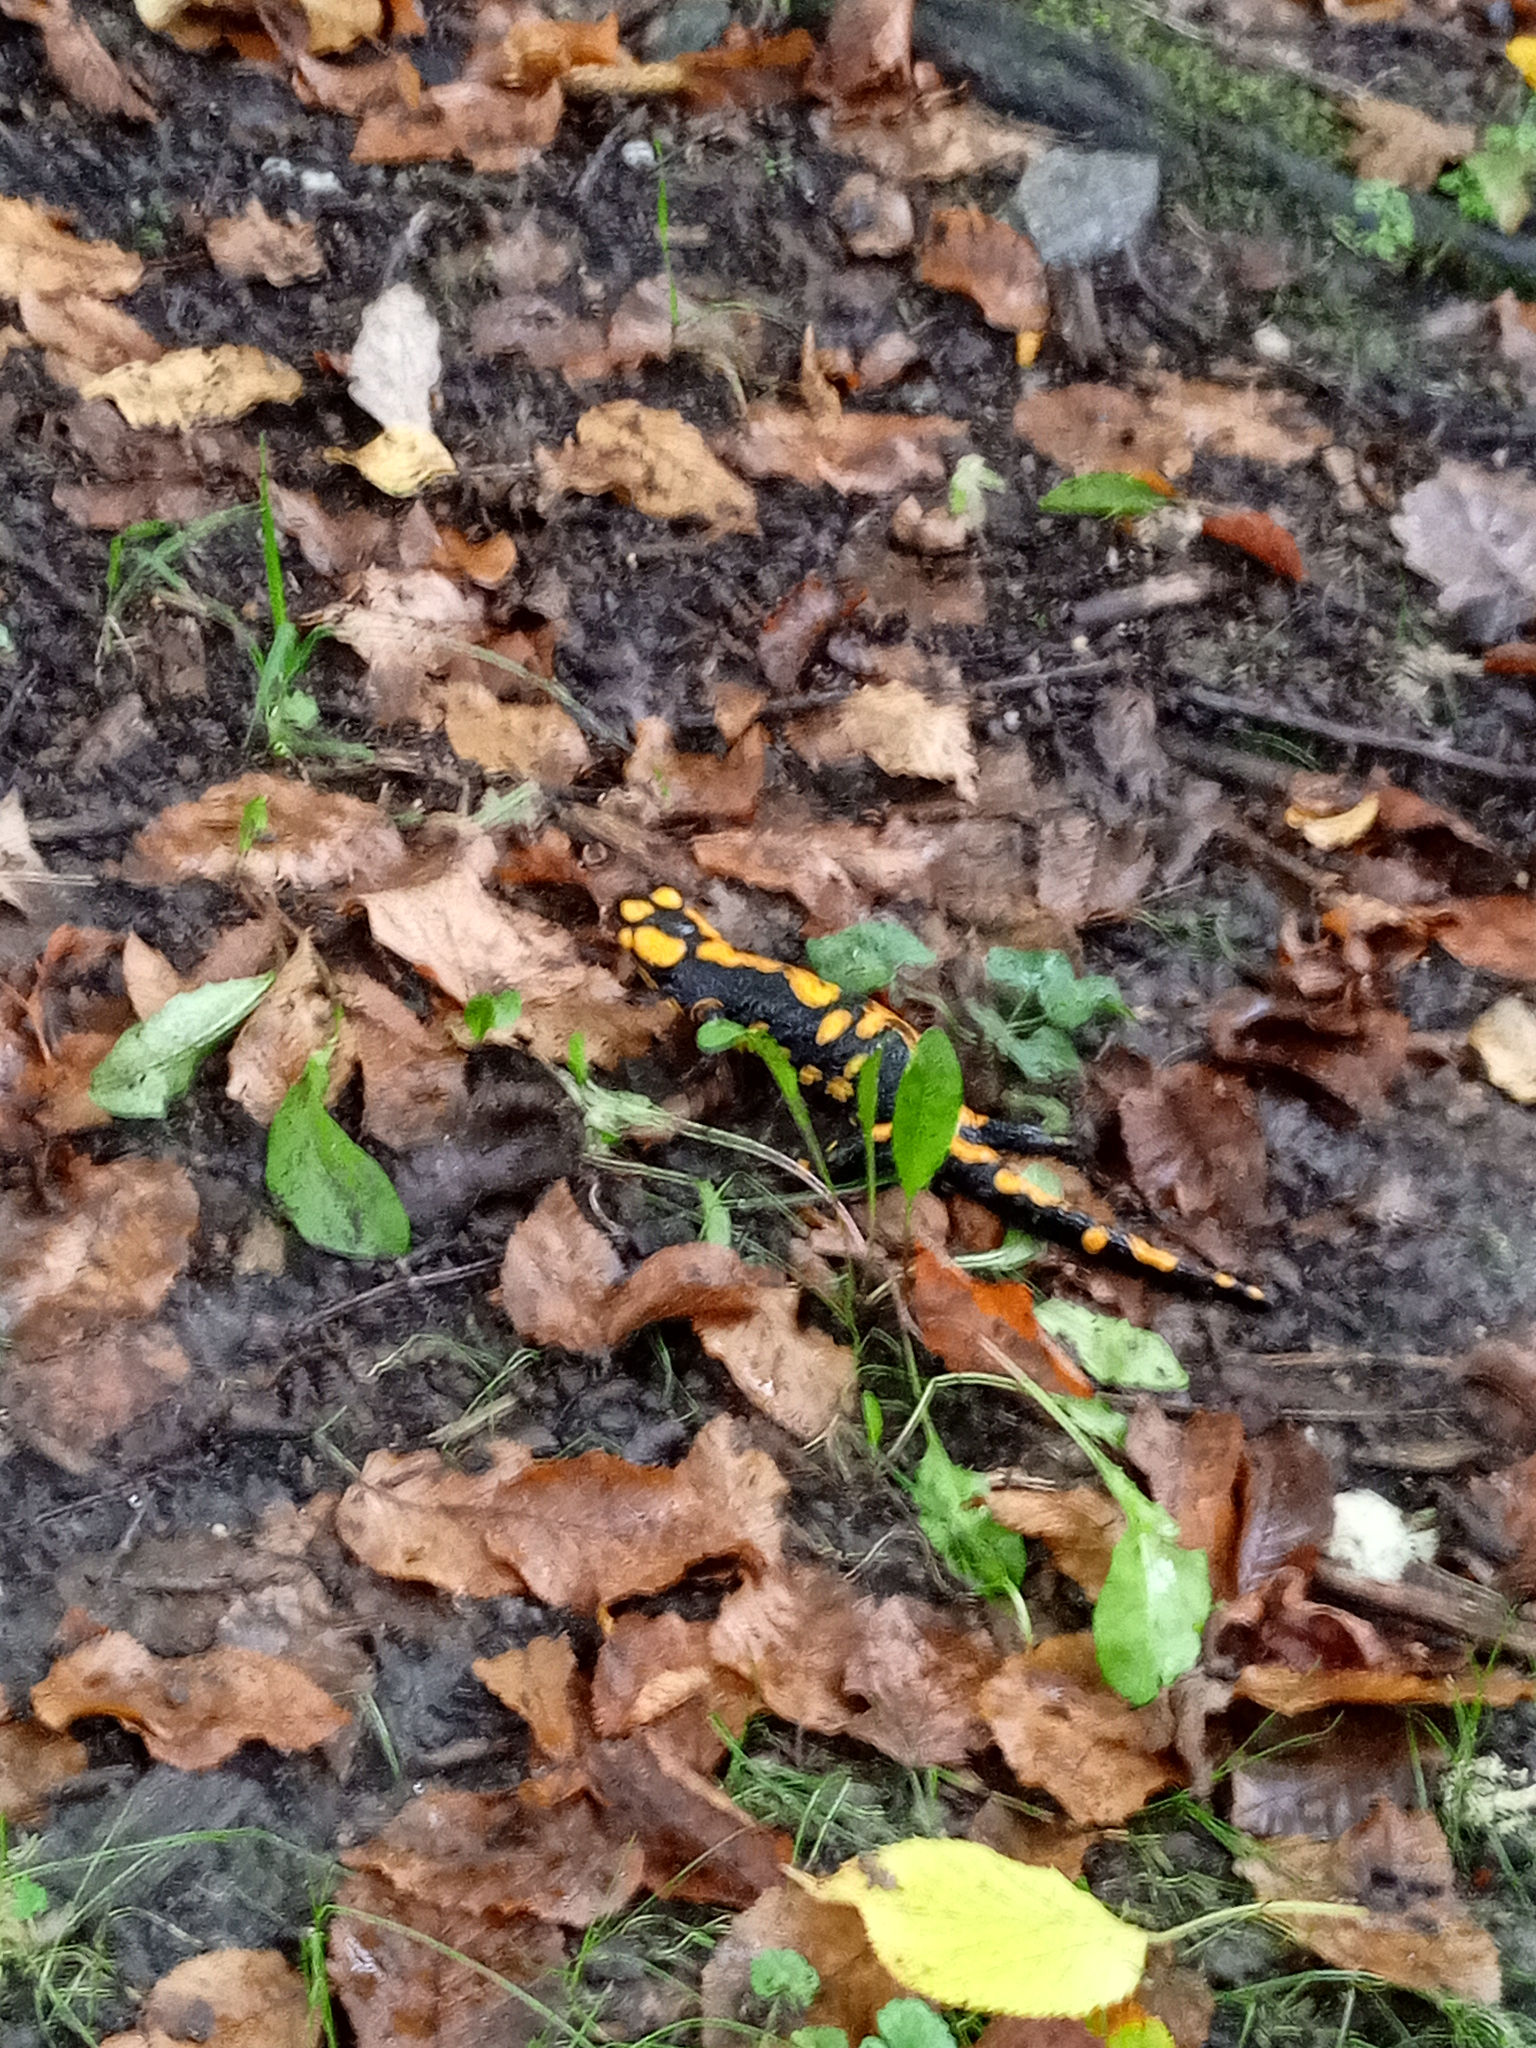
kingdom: Animalia
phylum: Chordata
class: Amphibia
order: Caudata
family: Salamandridae
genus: Salamandra
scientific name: Salamandra salamandra
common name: Fire salamander
